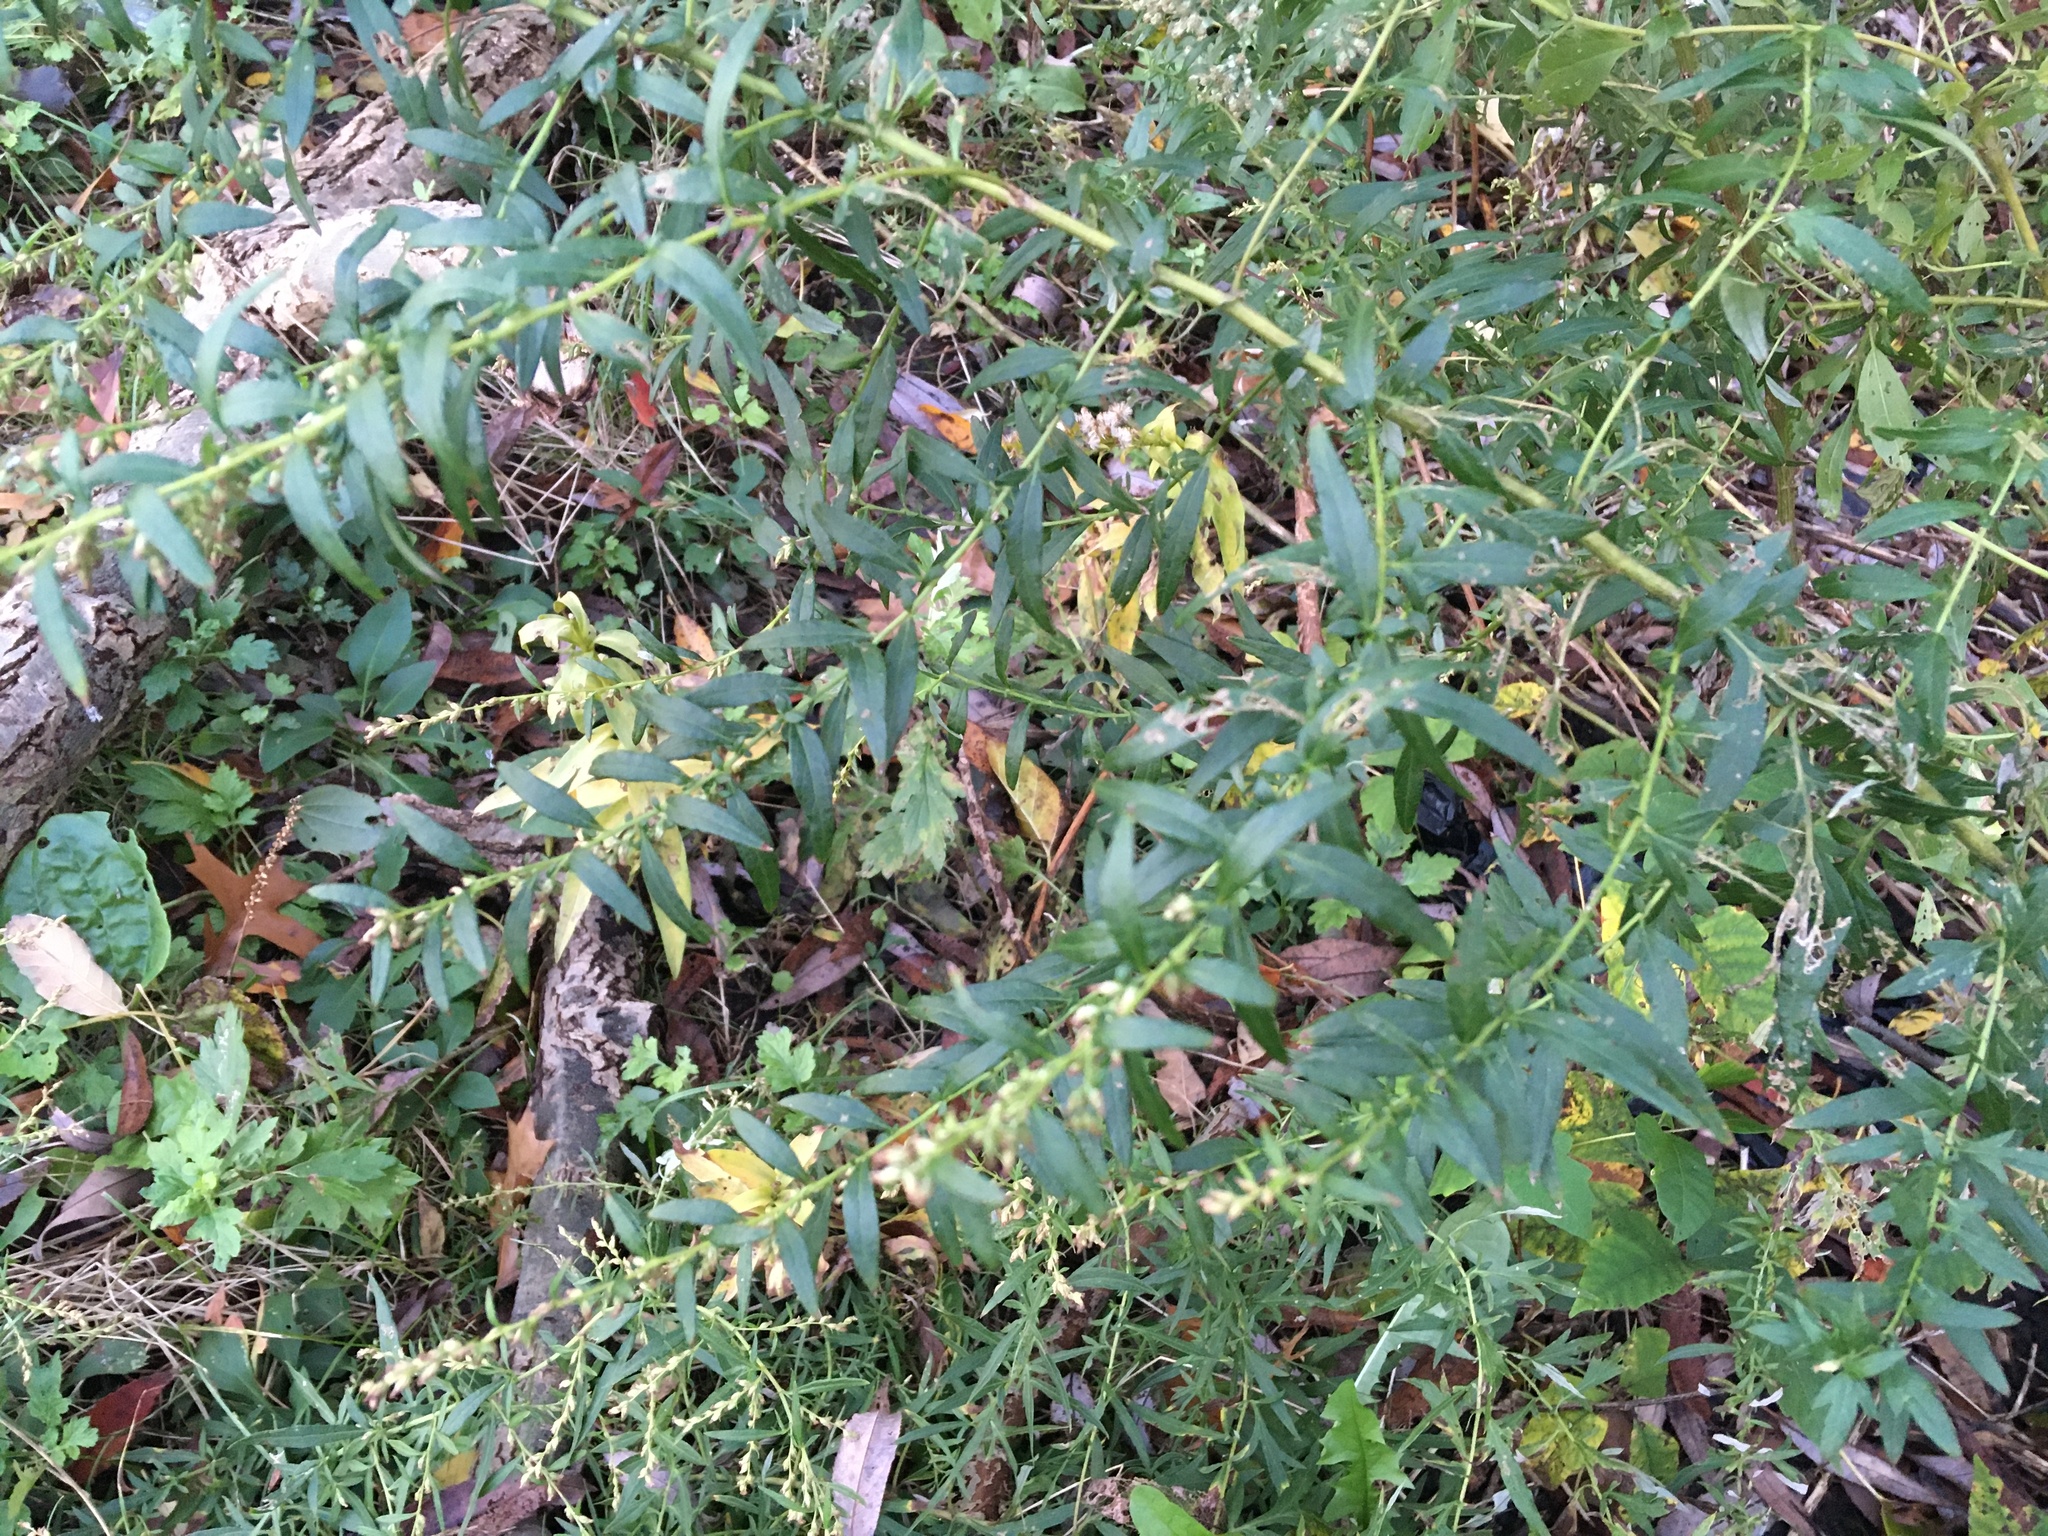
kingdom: Plantae
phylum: Tracheophyta
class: Magnoliopsida
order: Asterales
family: Asteraceae
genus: Artemisia
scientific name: Artemisia vulgaris
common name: Mugwort
